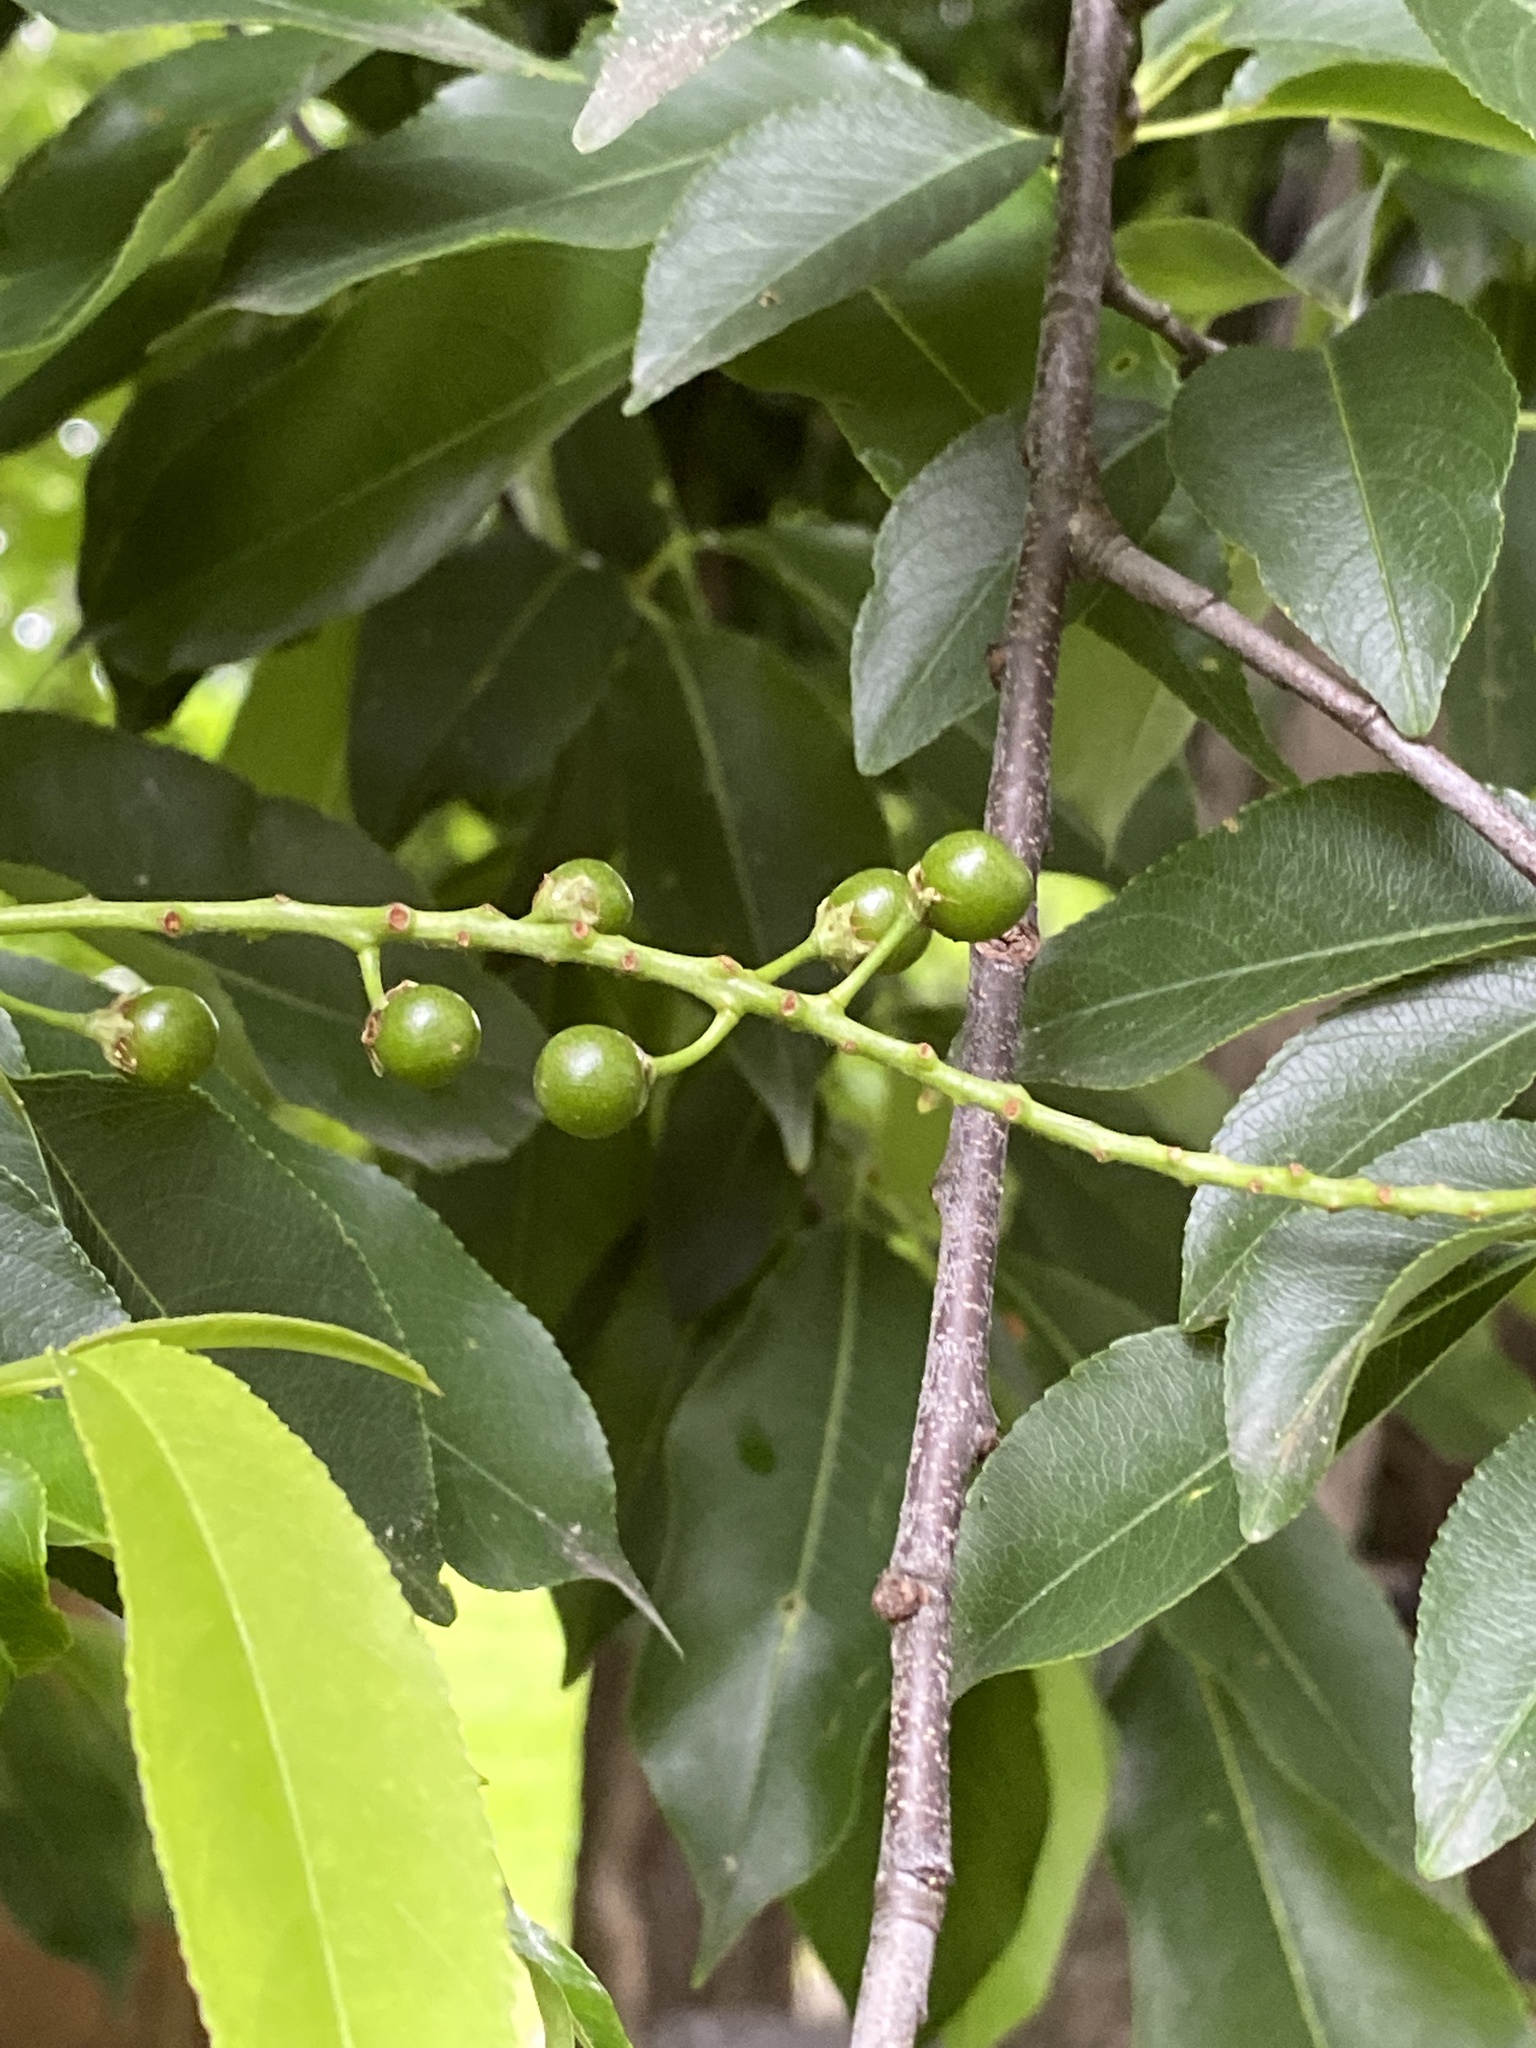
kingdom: Plantae
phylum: Tracheophyta
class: Magnoliopsida
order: Rosales
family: Rosaceae
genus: Prunus
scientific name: Prunus serotina
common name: Black cherry
